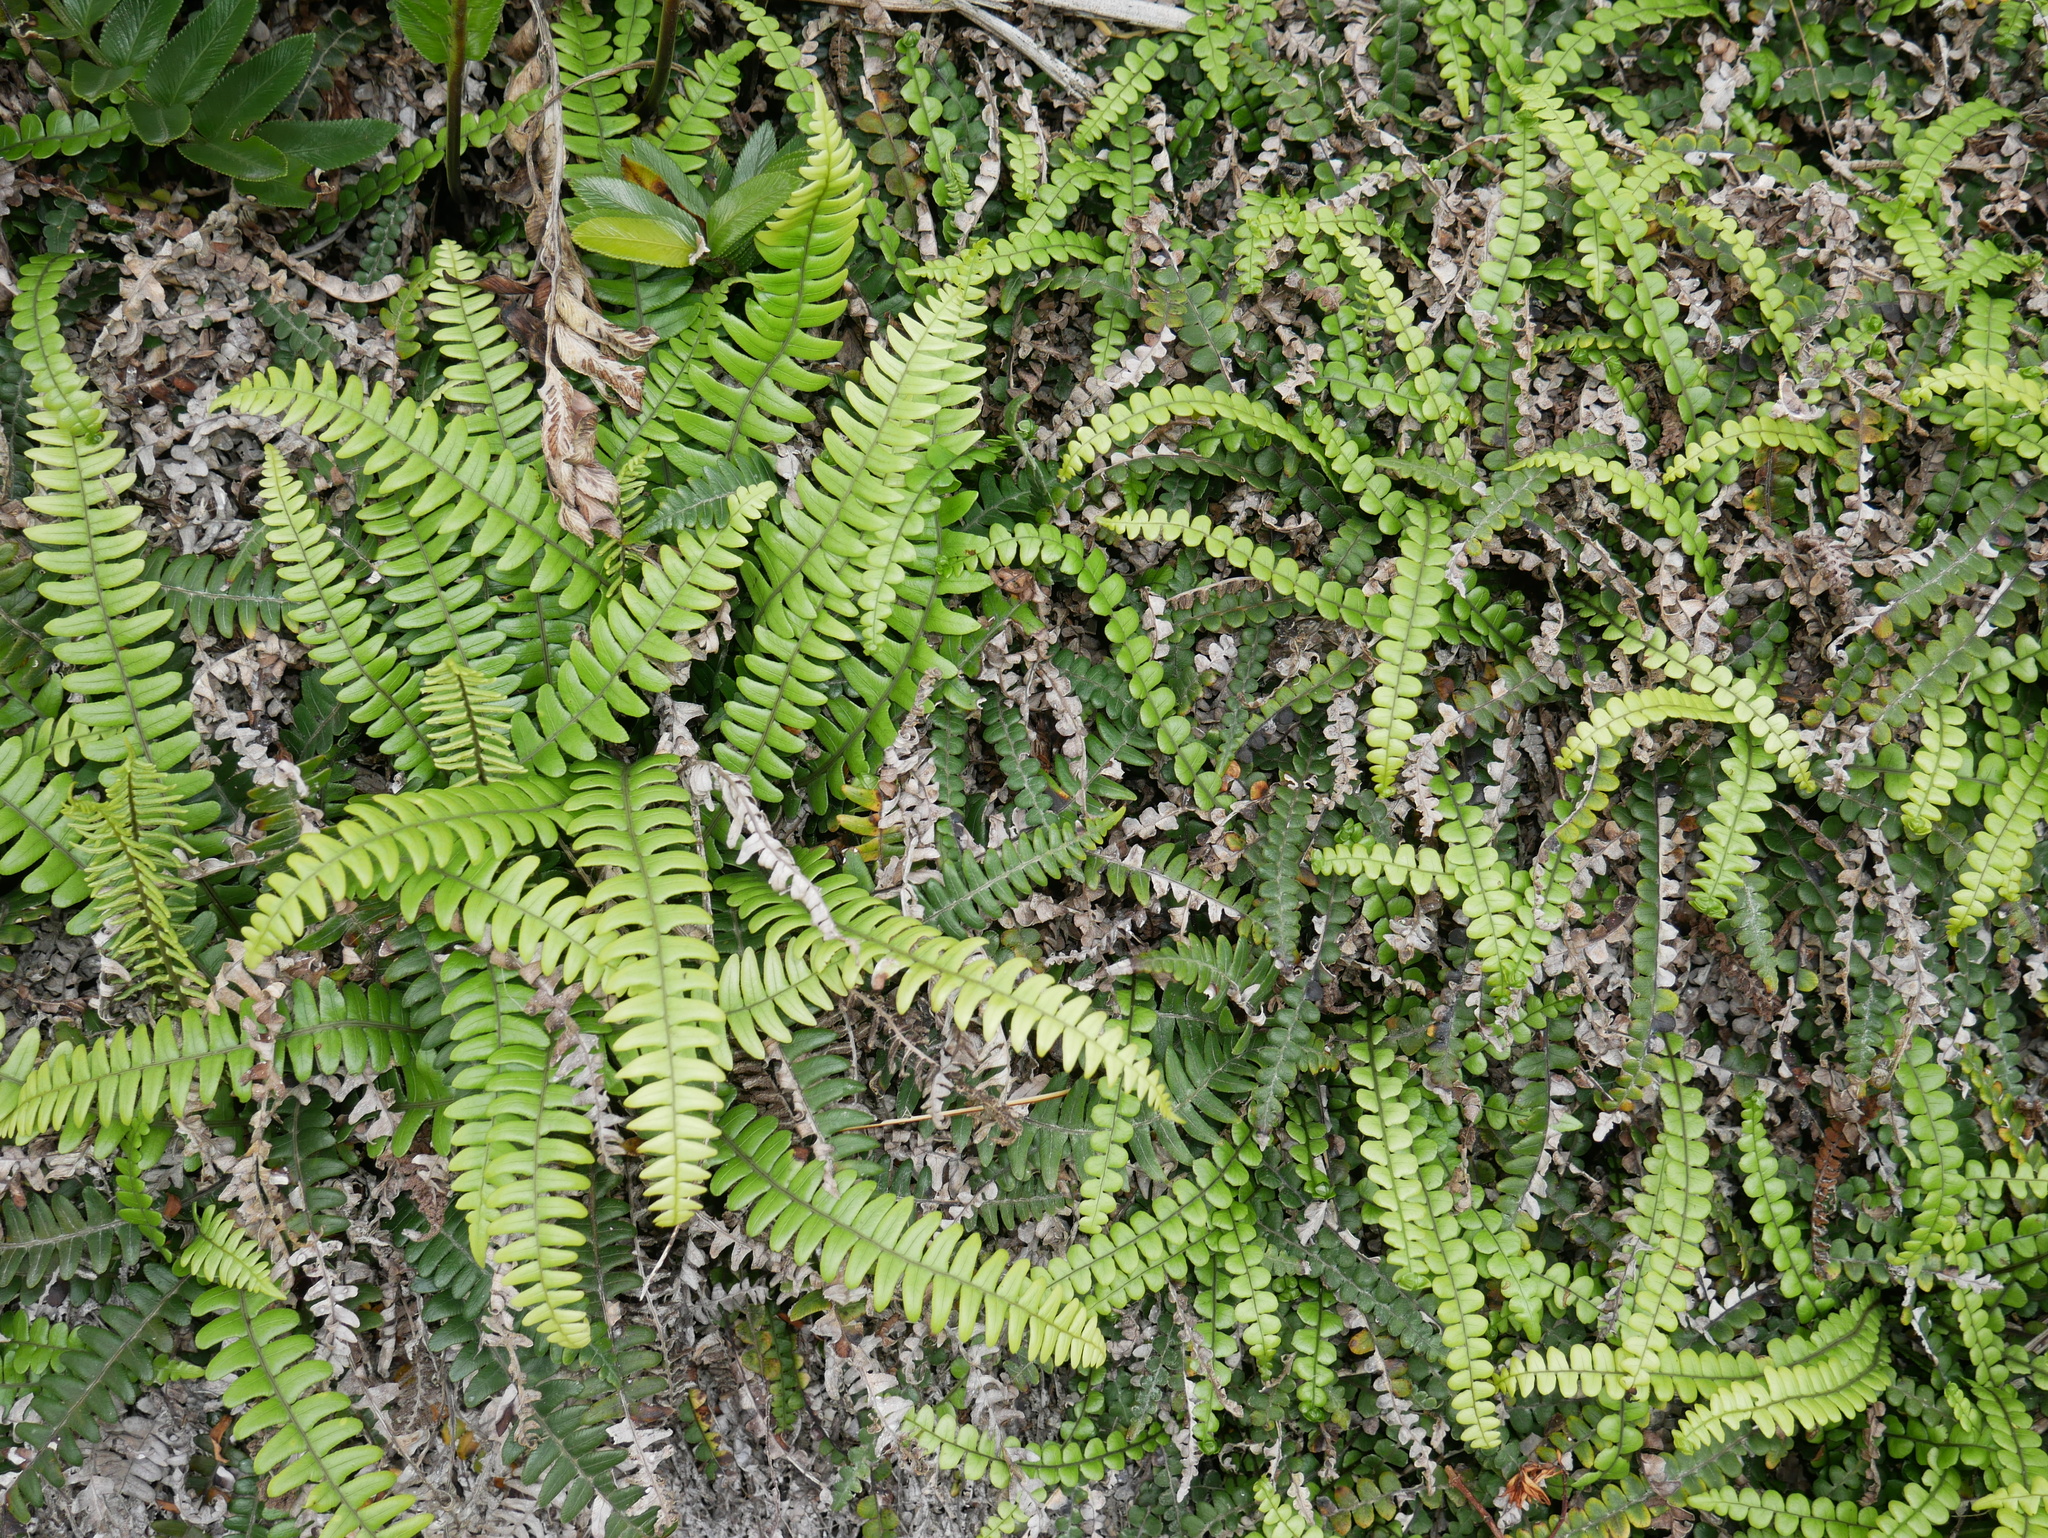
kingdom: Plantae
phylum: Tracheophyta
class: Polypodiopsida
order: Polypodiales
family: Blechnaceae
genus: Austroblechnum
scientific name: Austroblechnum durum
